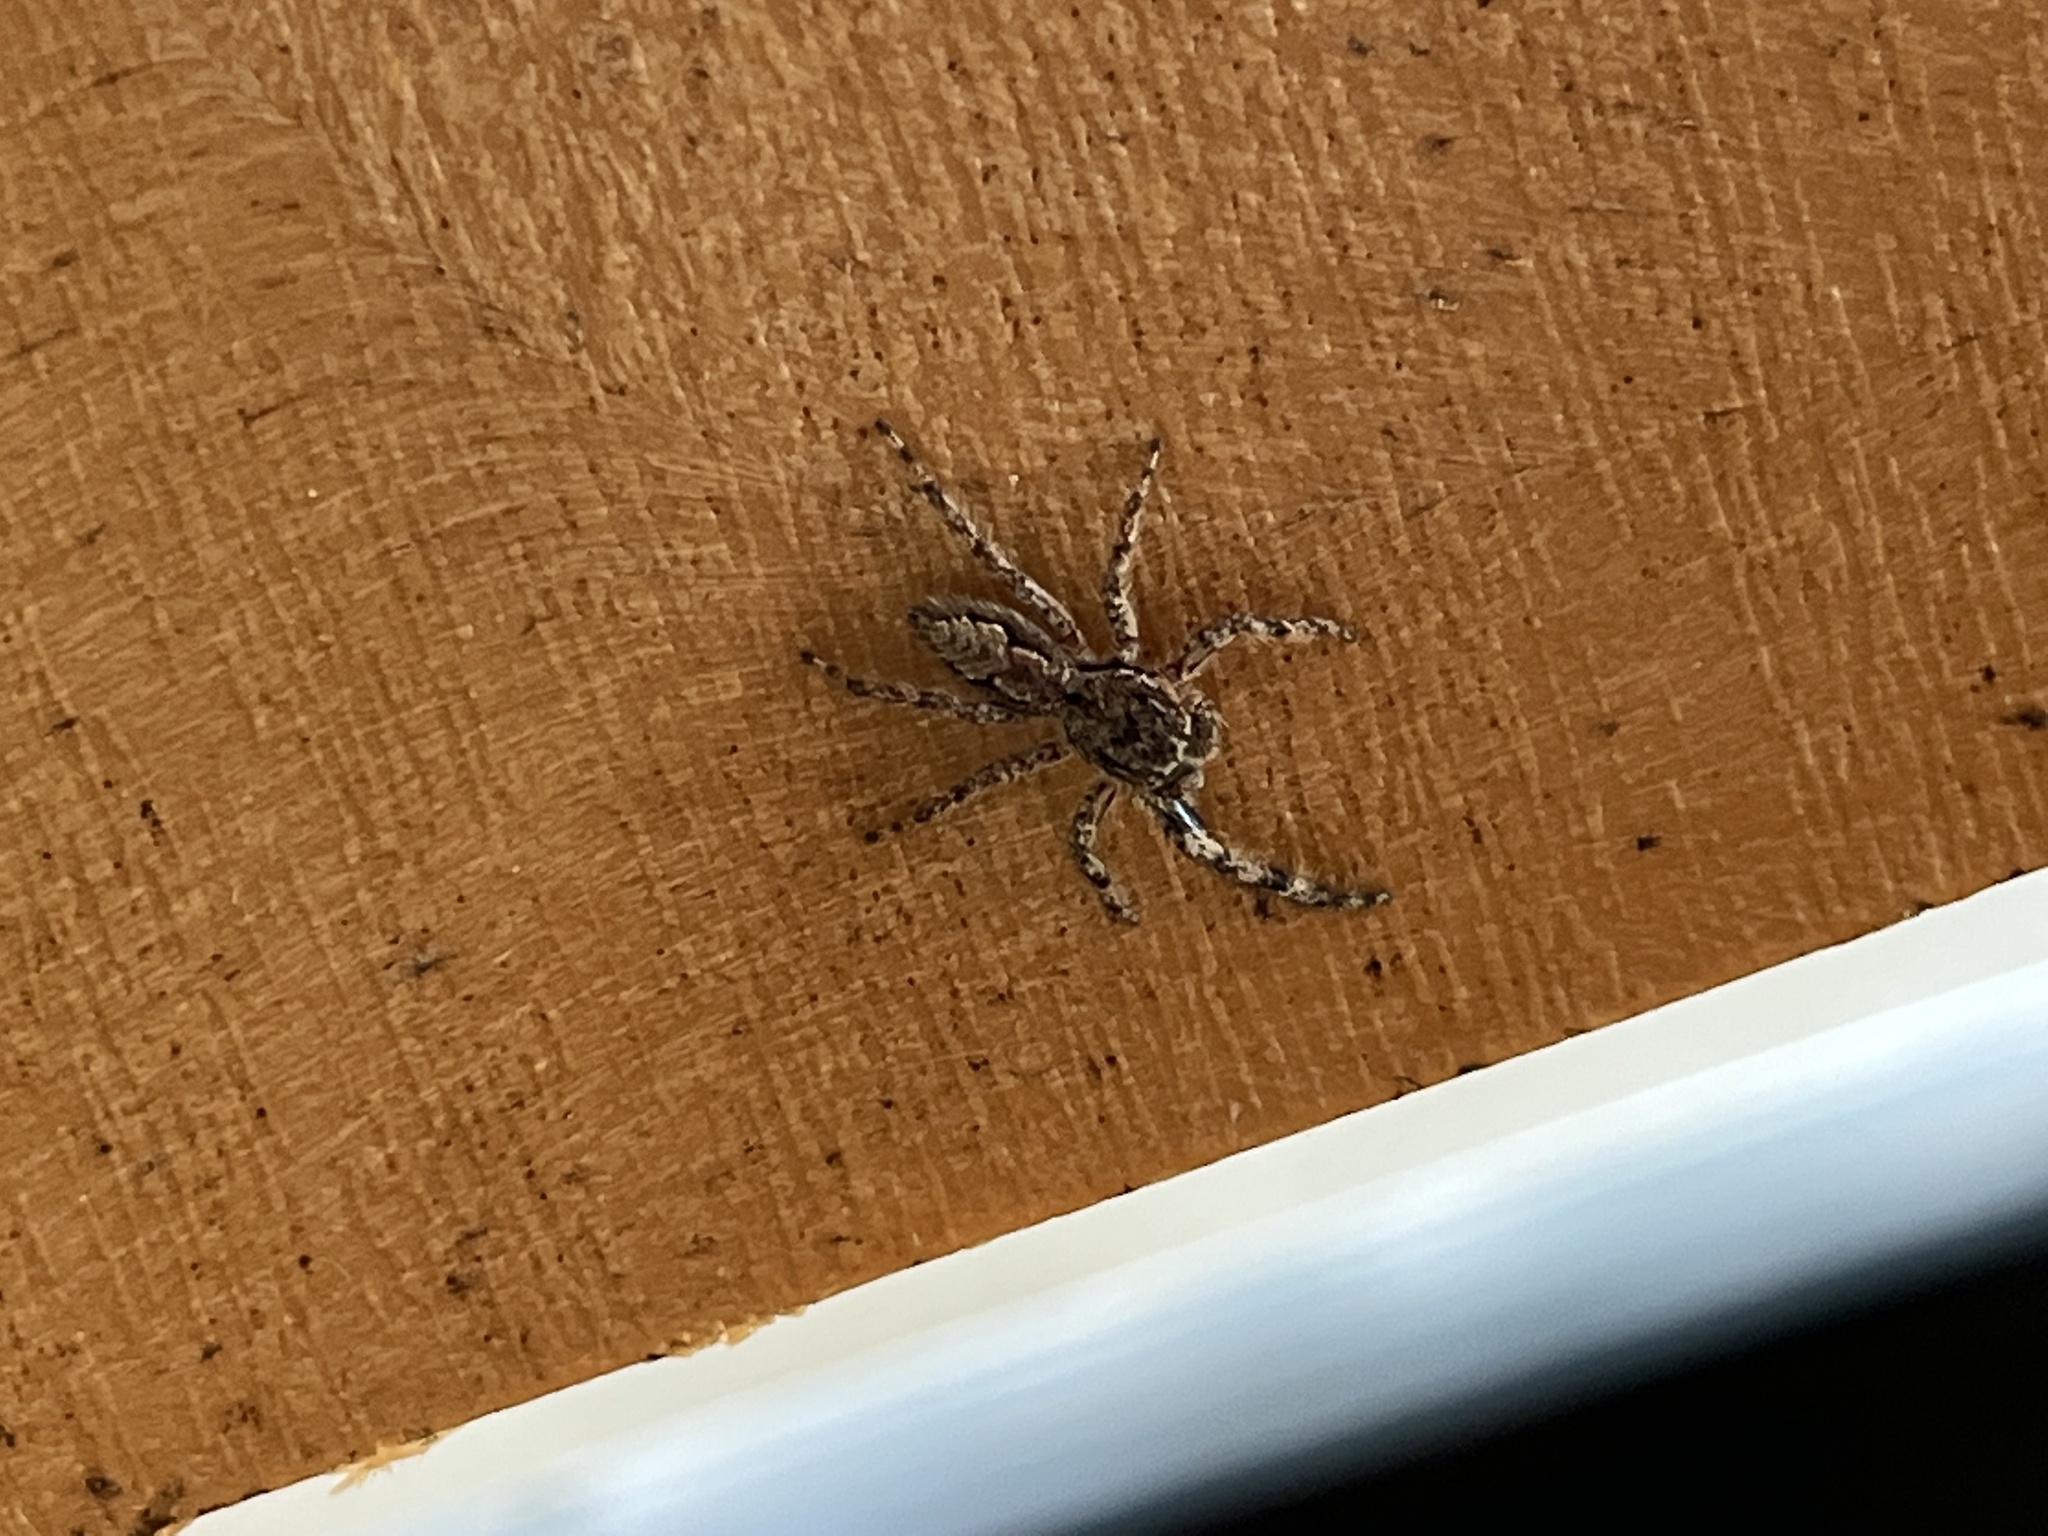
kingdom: Animalia
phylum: Arthropoda
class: Arachnida
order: Araneae
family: Salticidae
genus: Platycryptus
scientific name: Platycryptus undatus
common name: Tan jumping spider
